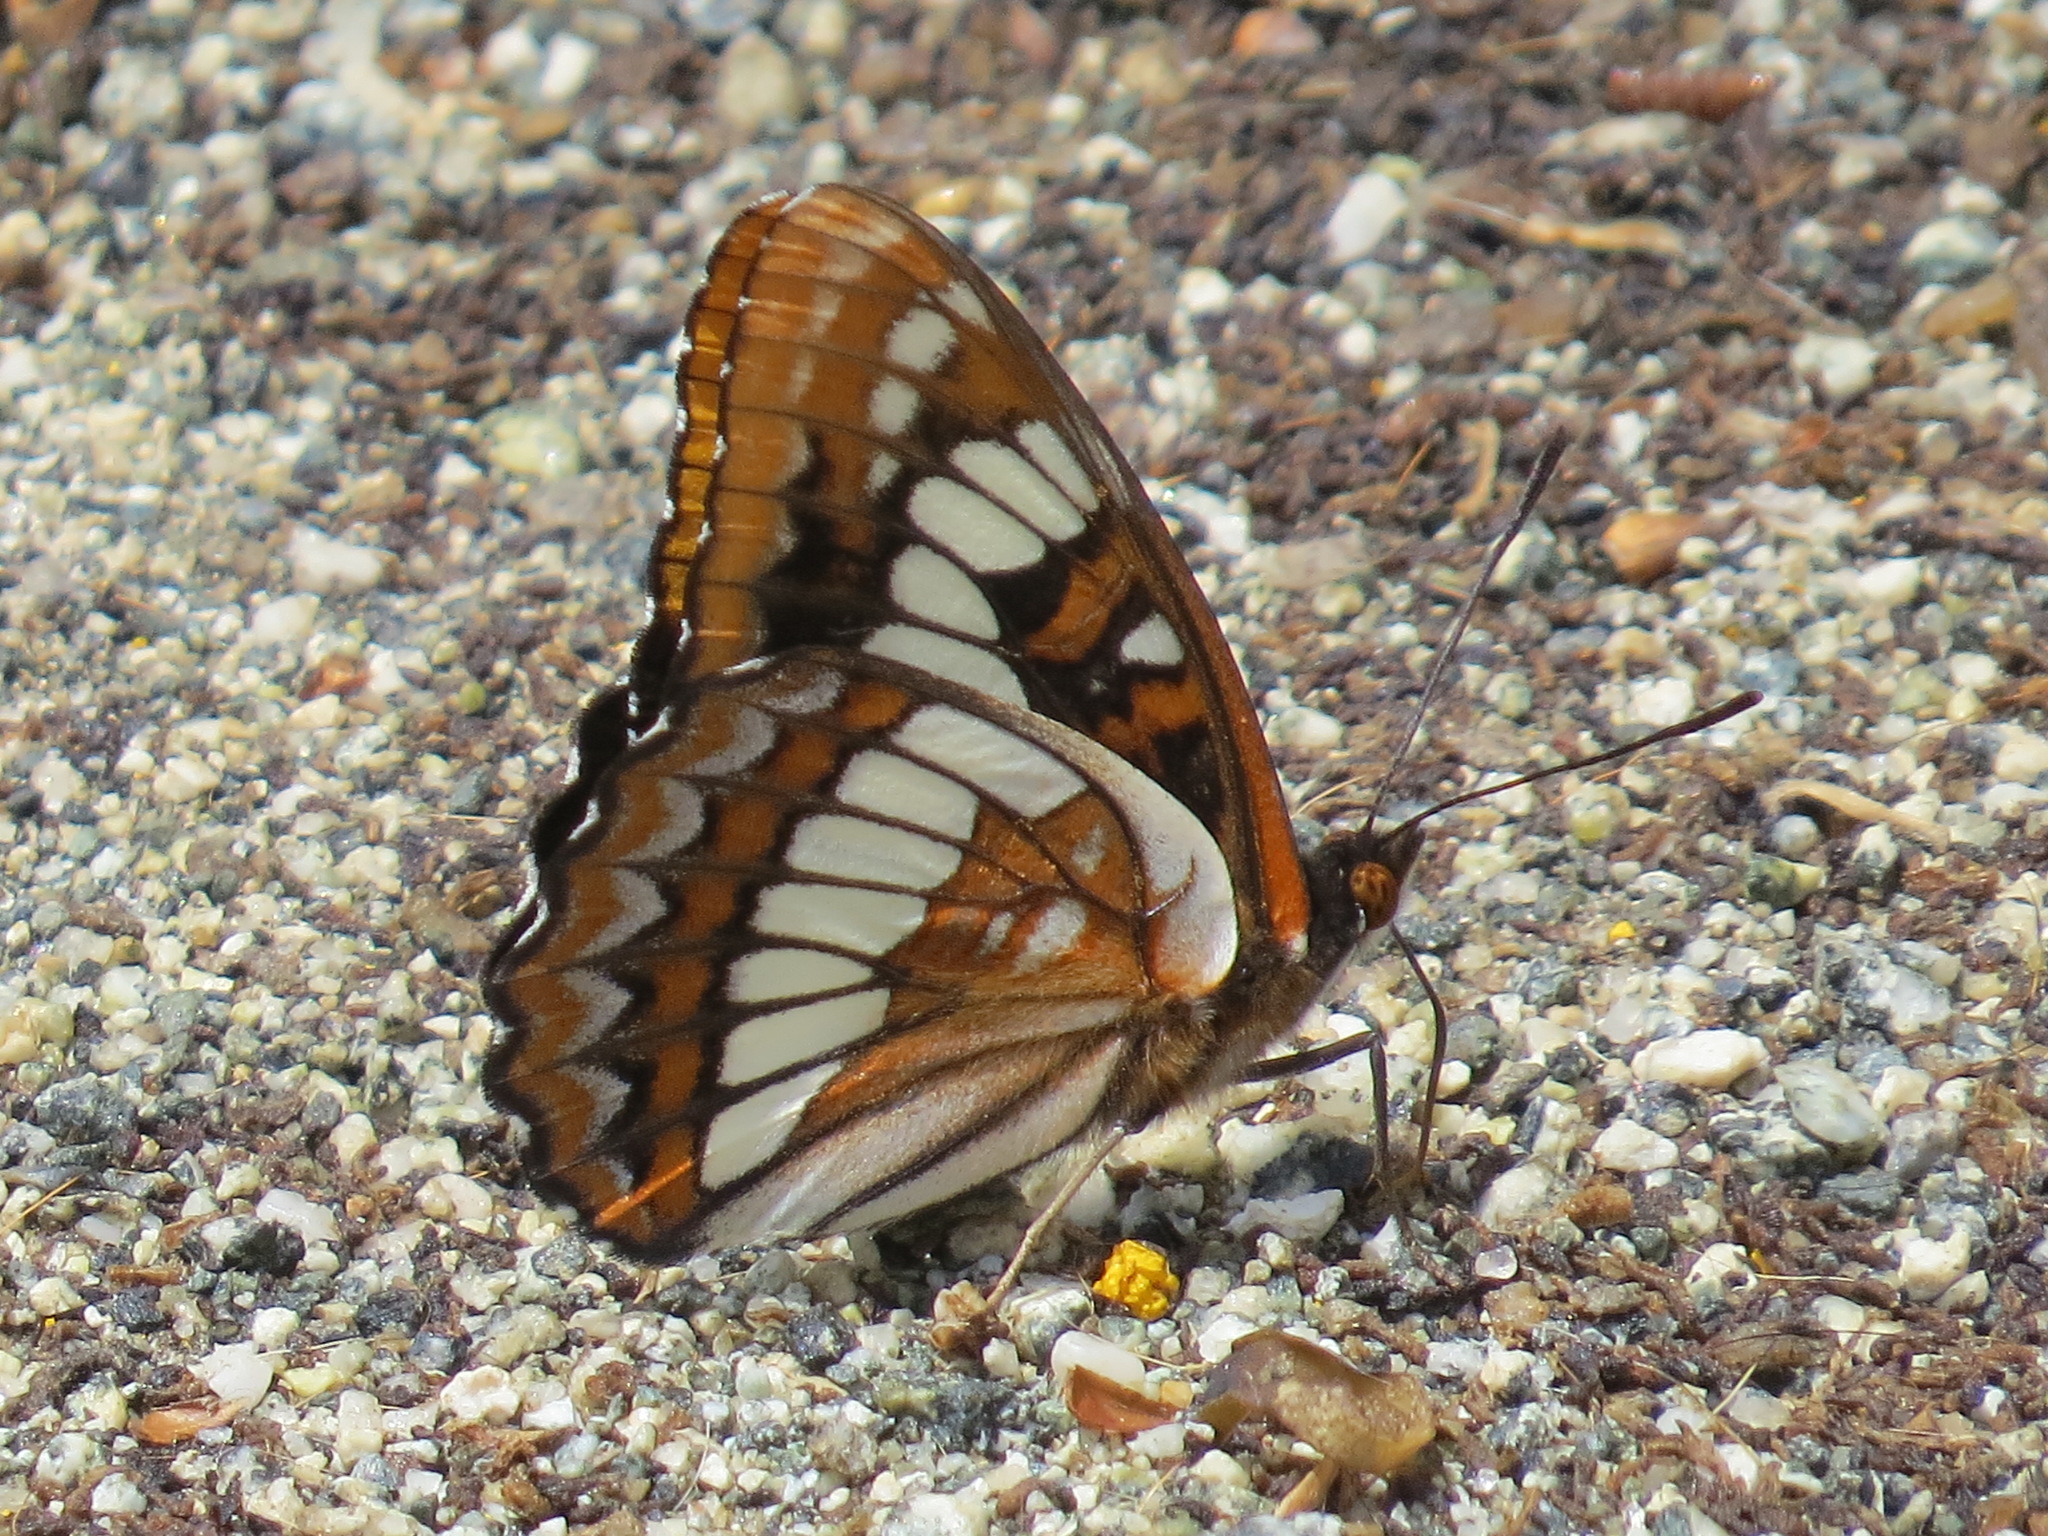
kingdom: Animalia
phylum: Arthropoda
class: Insecta
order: Lepidoptera
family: Nymphalidae
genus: Limenitis
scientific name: Limenitis lorquini
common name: Lorquin's admiral
